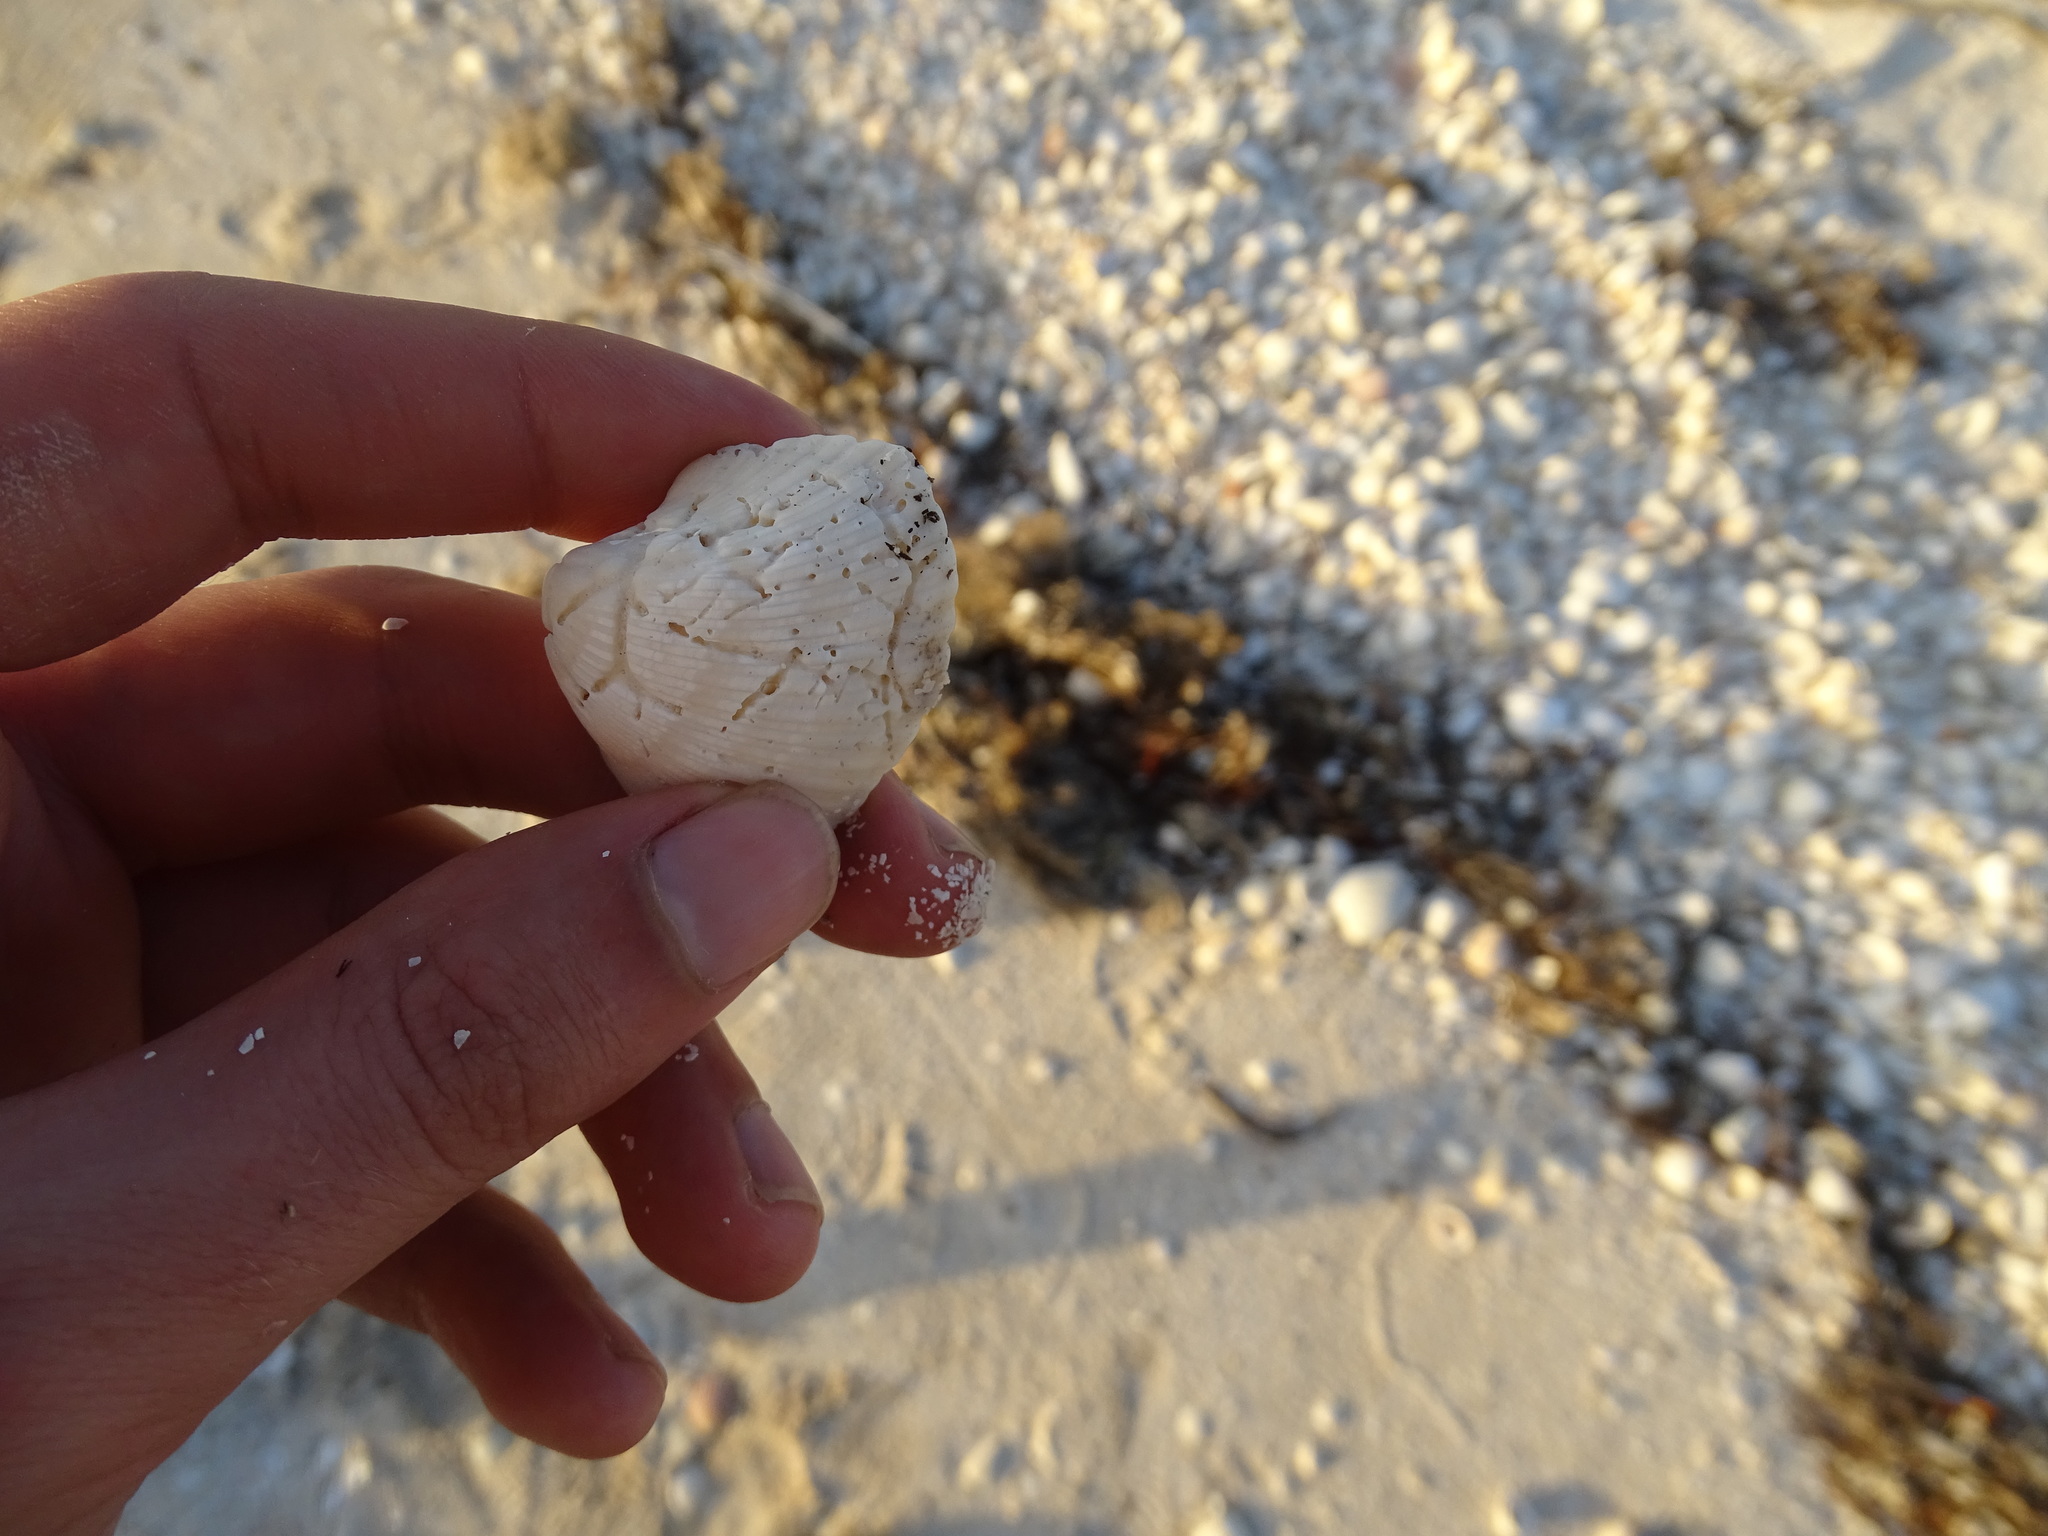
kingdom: Animalia
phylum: Mollusca
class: Bivalvia
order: Arcida
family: Noetiidae
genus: Noetia
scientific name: Noetia ponderosa
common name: Ponderous ark
